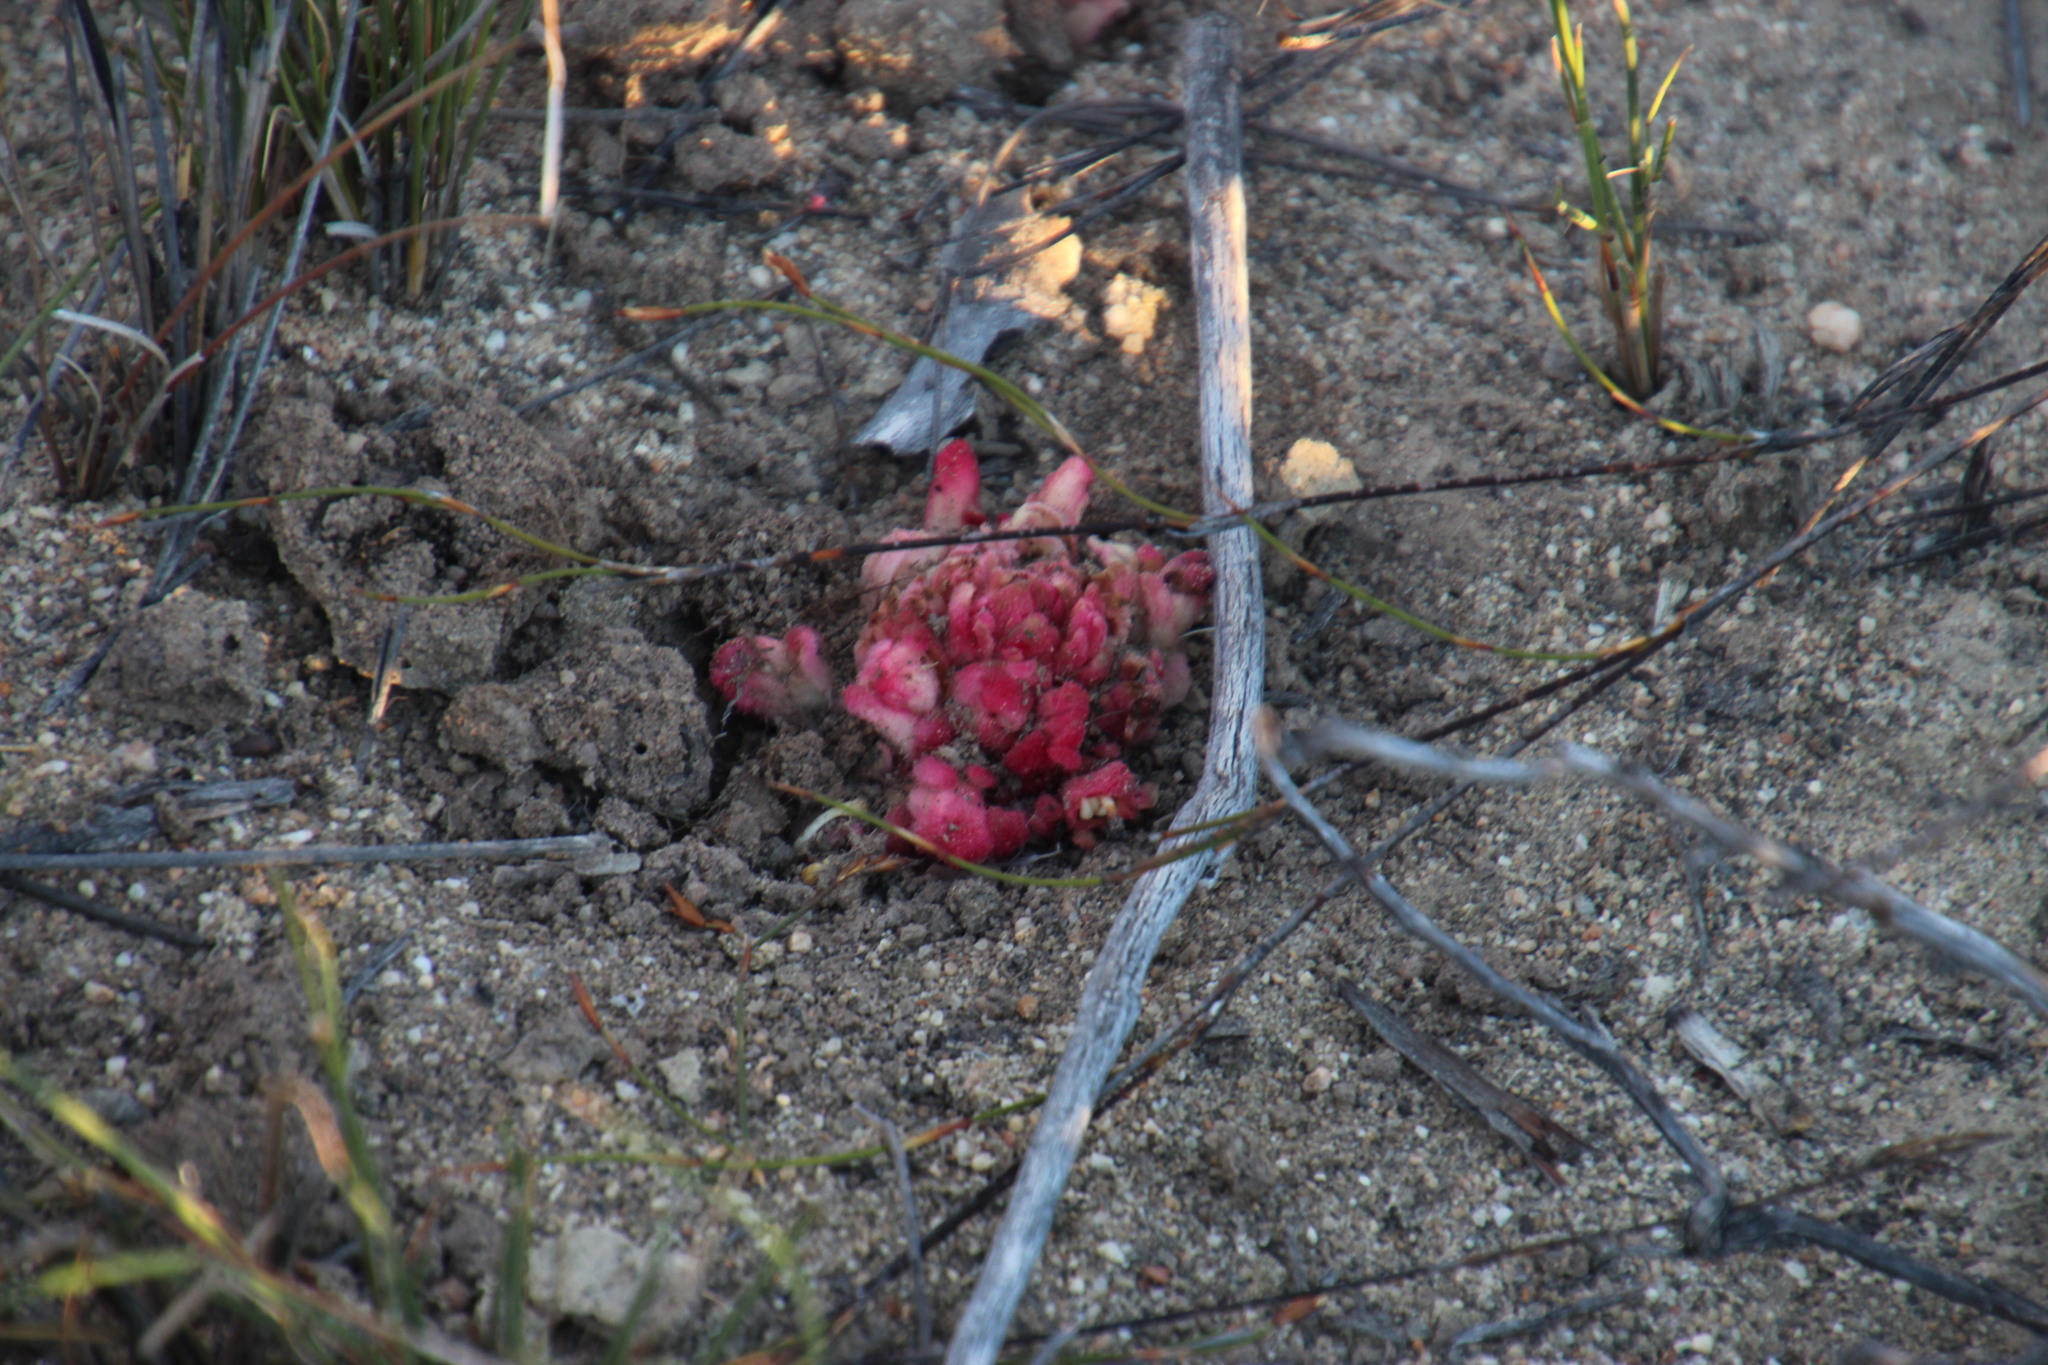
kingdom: Plantae
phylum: Tracheophyta
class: Magnoliopsida
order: Lamiales
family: Orobanchaceae
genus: Hyobanche
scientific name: Hyobanche sanguinea
